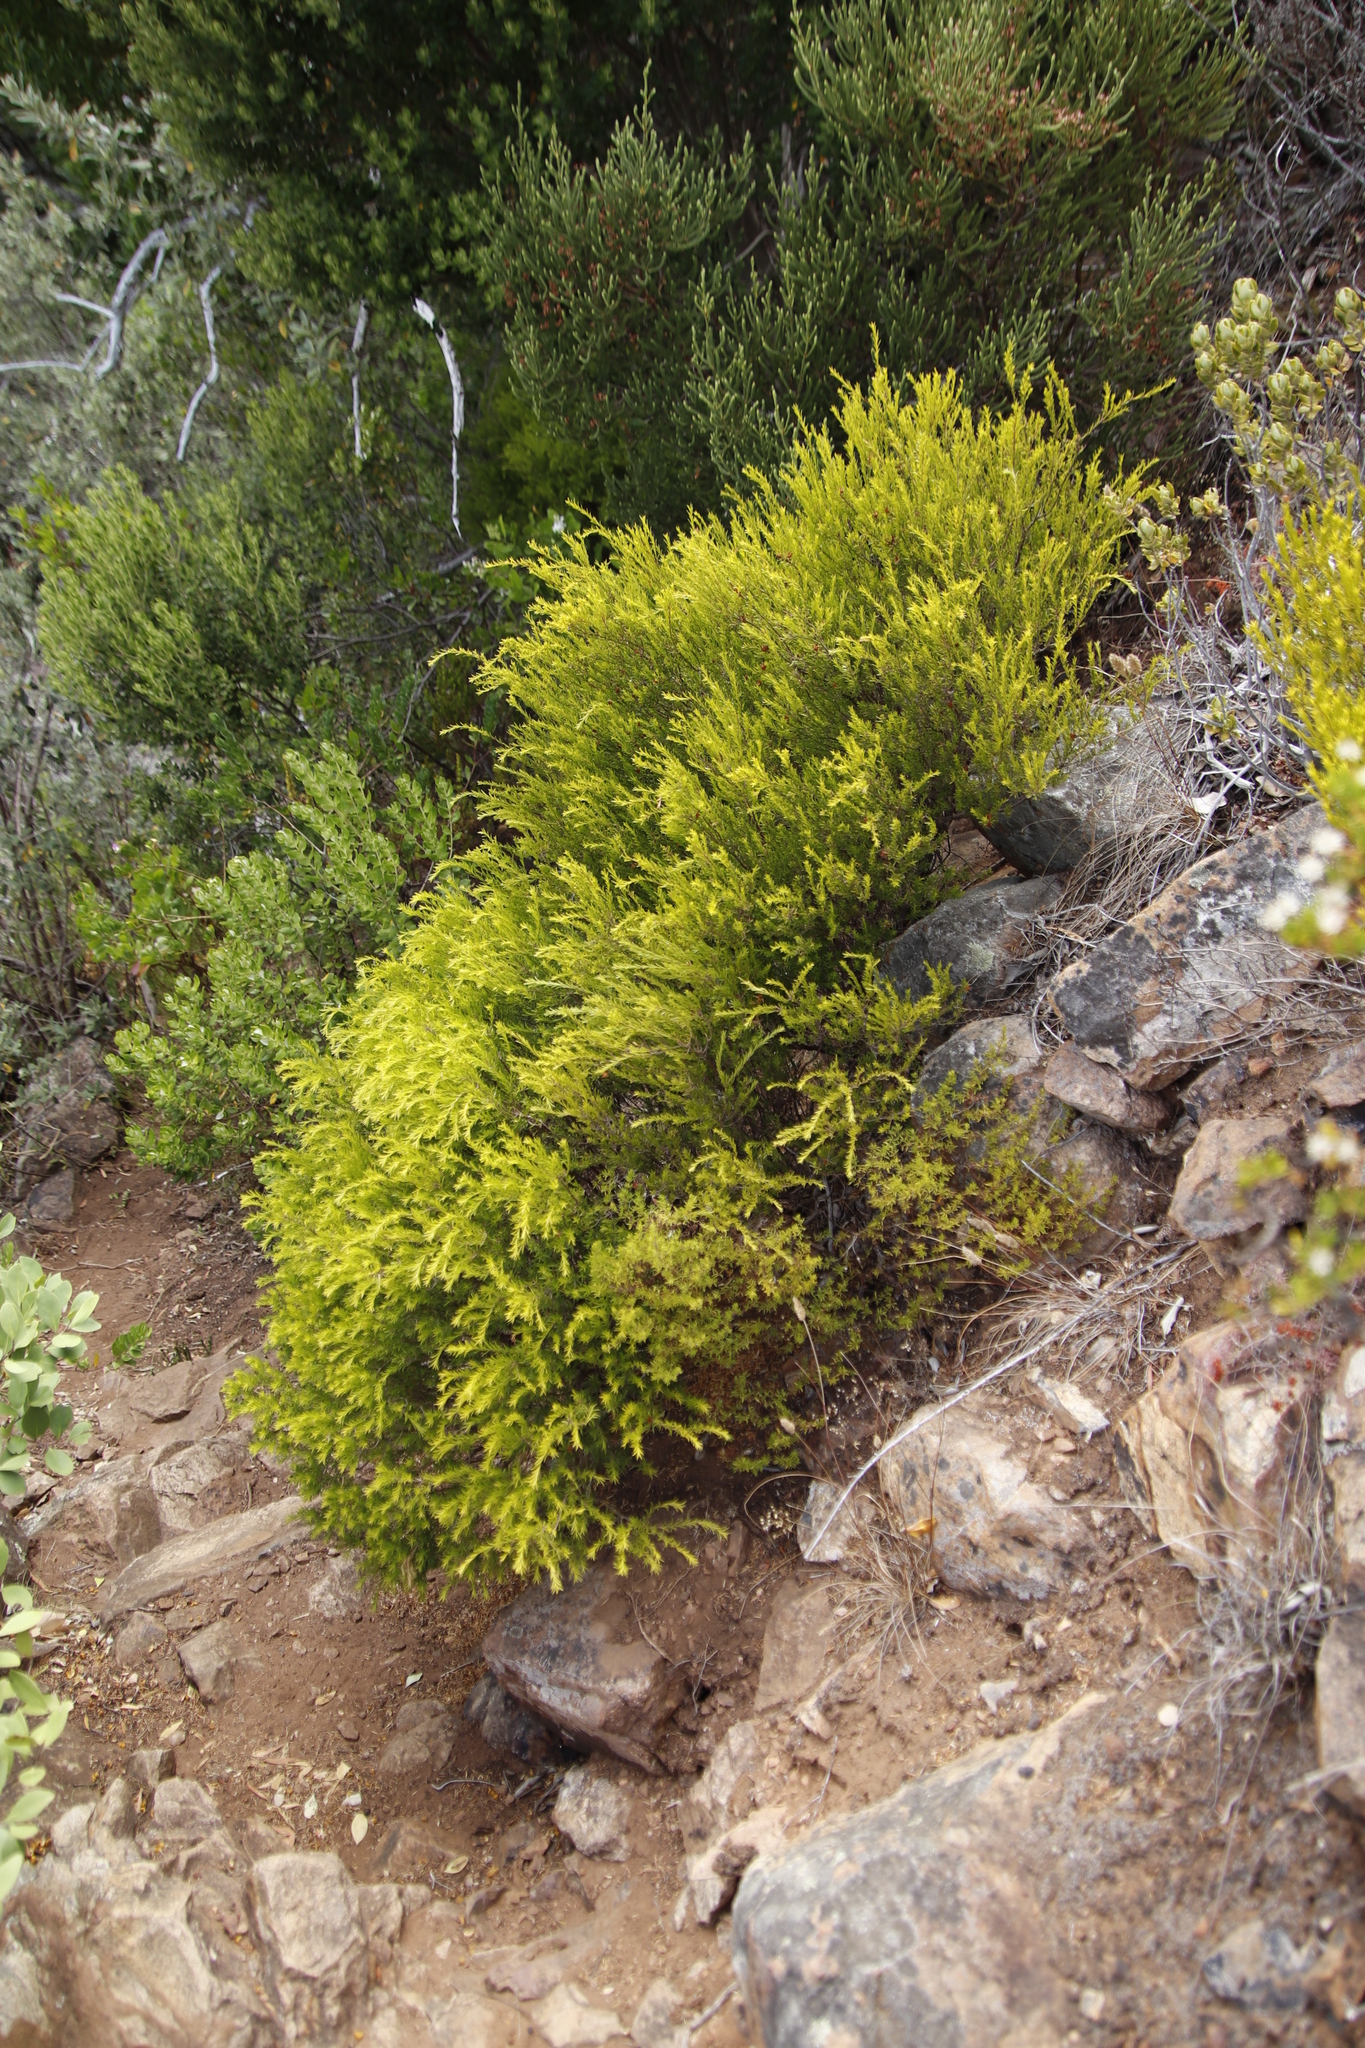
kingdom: Plantae
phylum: Tracheophyta
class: Magnoliopsida
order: Sapindales
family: Rutaceae
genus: Coleonema
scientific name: Coleonema album
